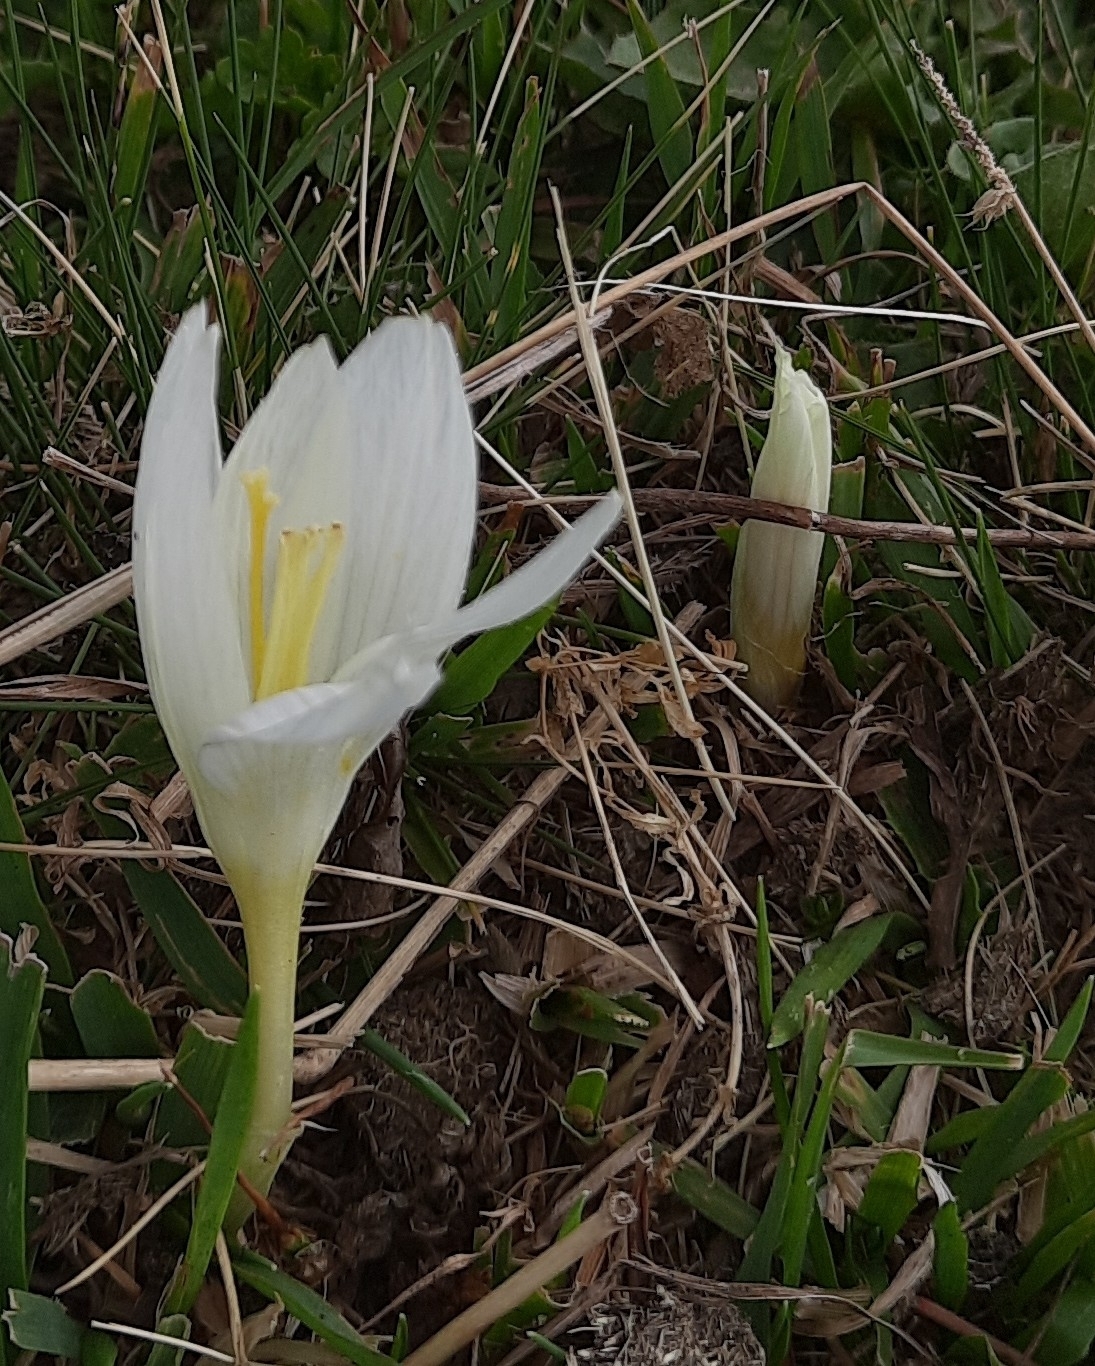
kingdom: Plantae
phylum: Tracheophyta
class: Liliopsida
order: Asparagales
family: Iridaceae
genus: Crocus
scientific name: Crocus vallicola
